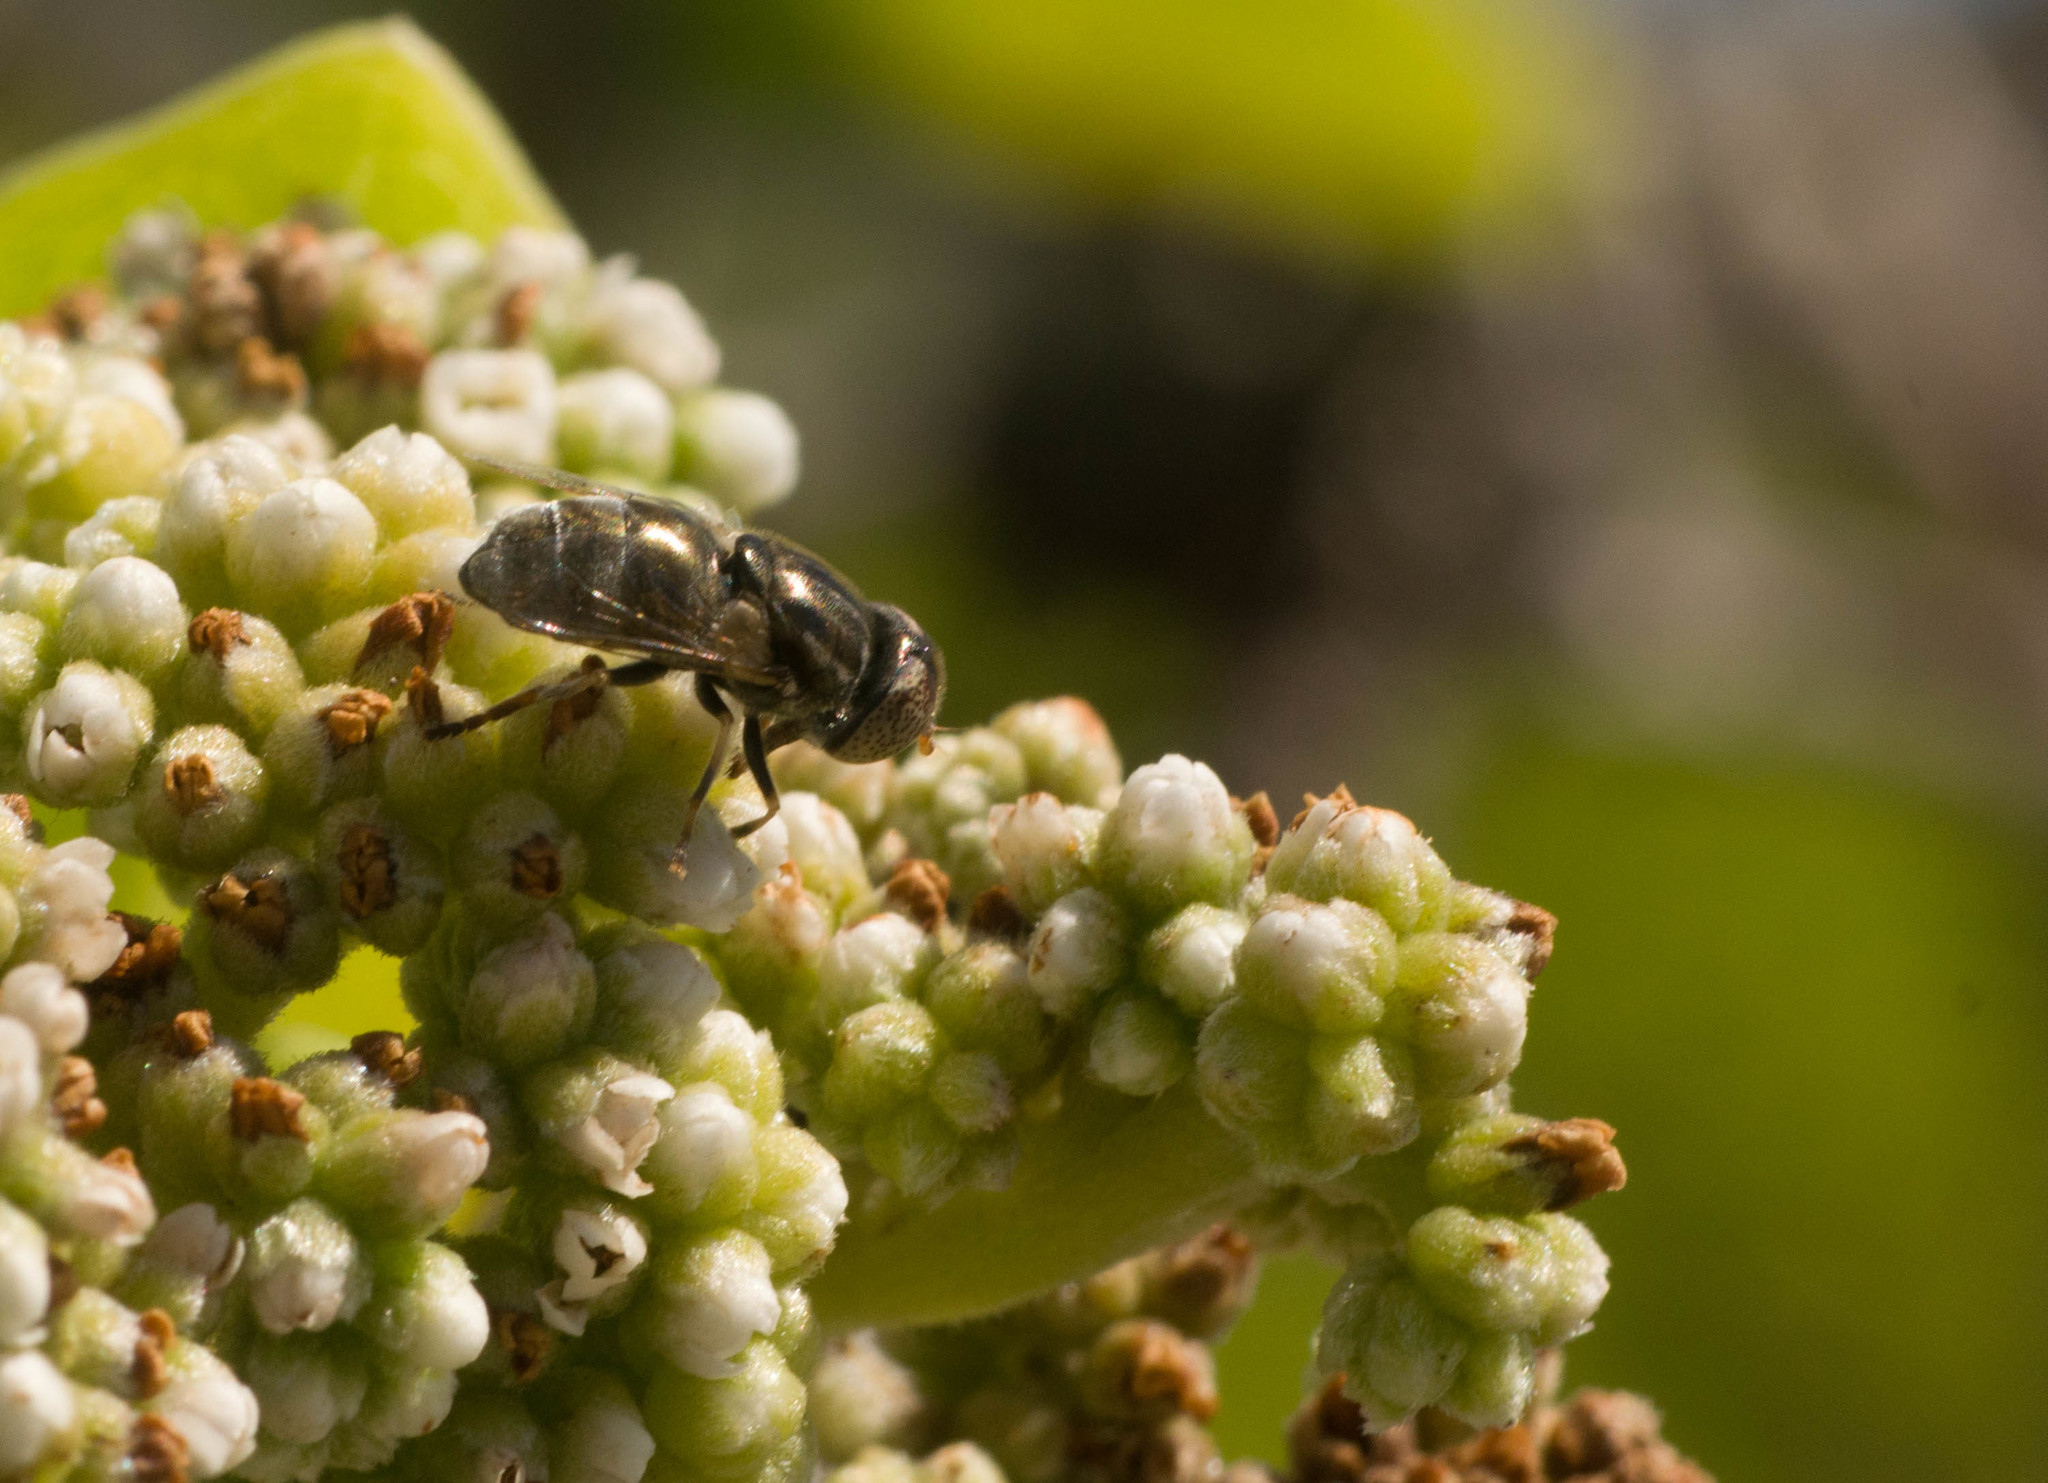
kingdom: Animalia
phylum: Arthropoda
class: Insecta
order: Diptera
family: Syrphidae
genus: Eristalinus
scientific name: Eristalinus aeneus
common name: Syrphid fly
